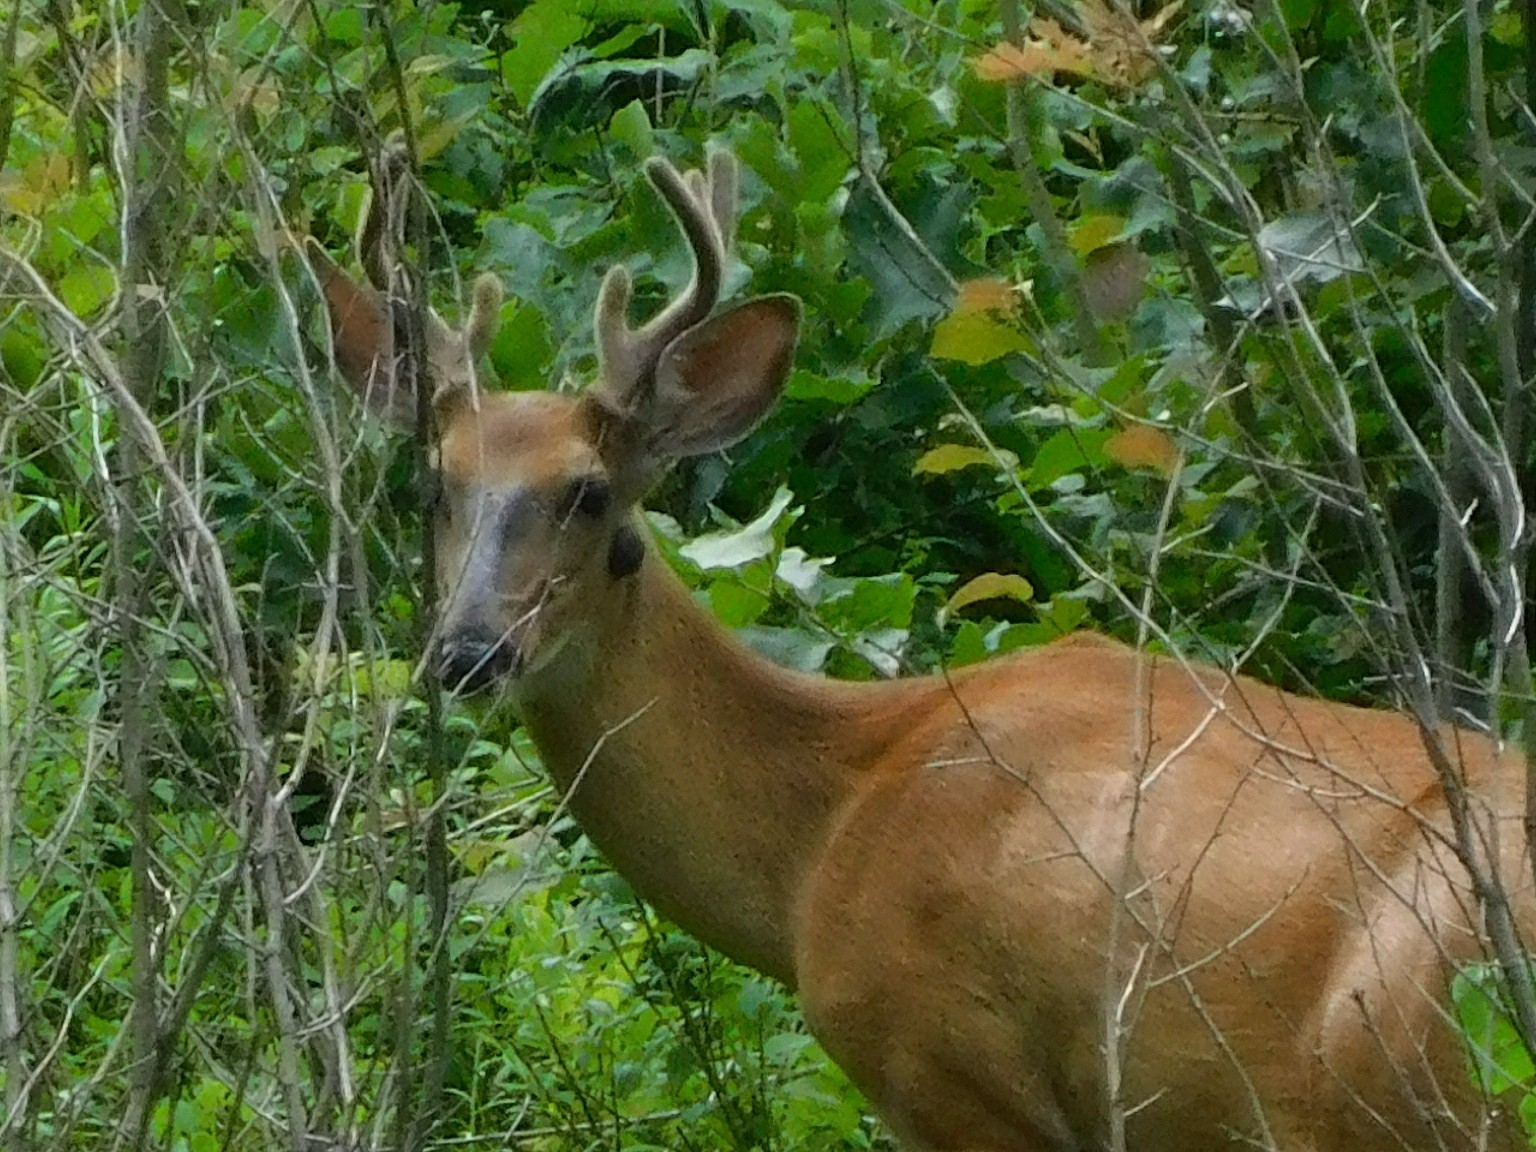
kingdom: Animalia
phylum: Chordata
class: Mammalia
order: Artiodactyla
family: Cervidae
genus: Odocoileus
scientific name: Odocoileus virginianus
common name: White-tailed deer
